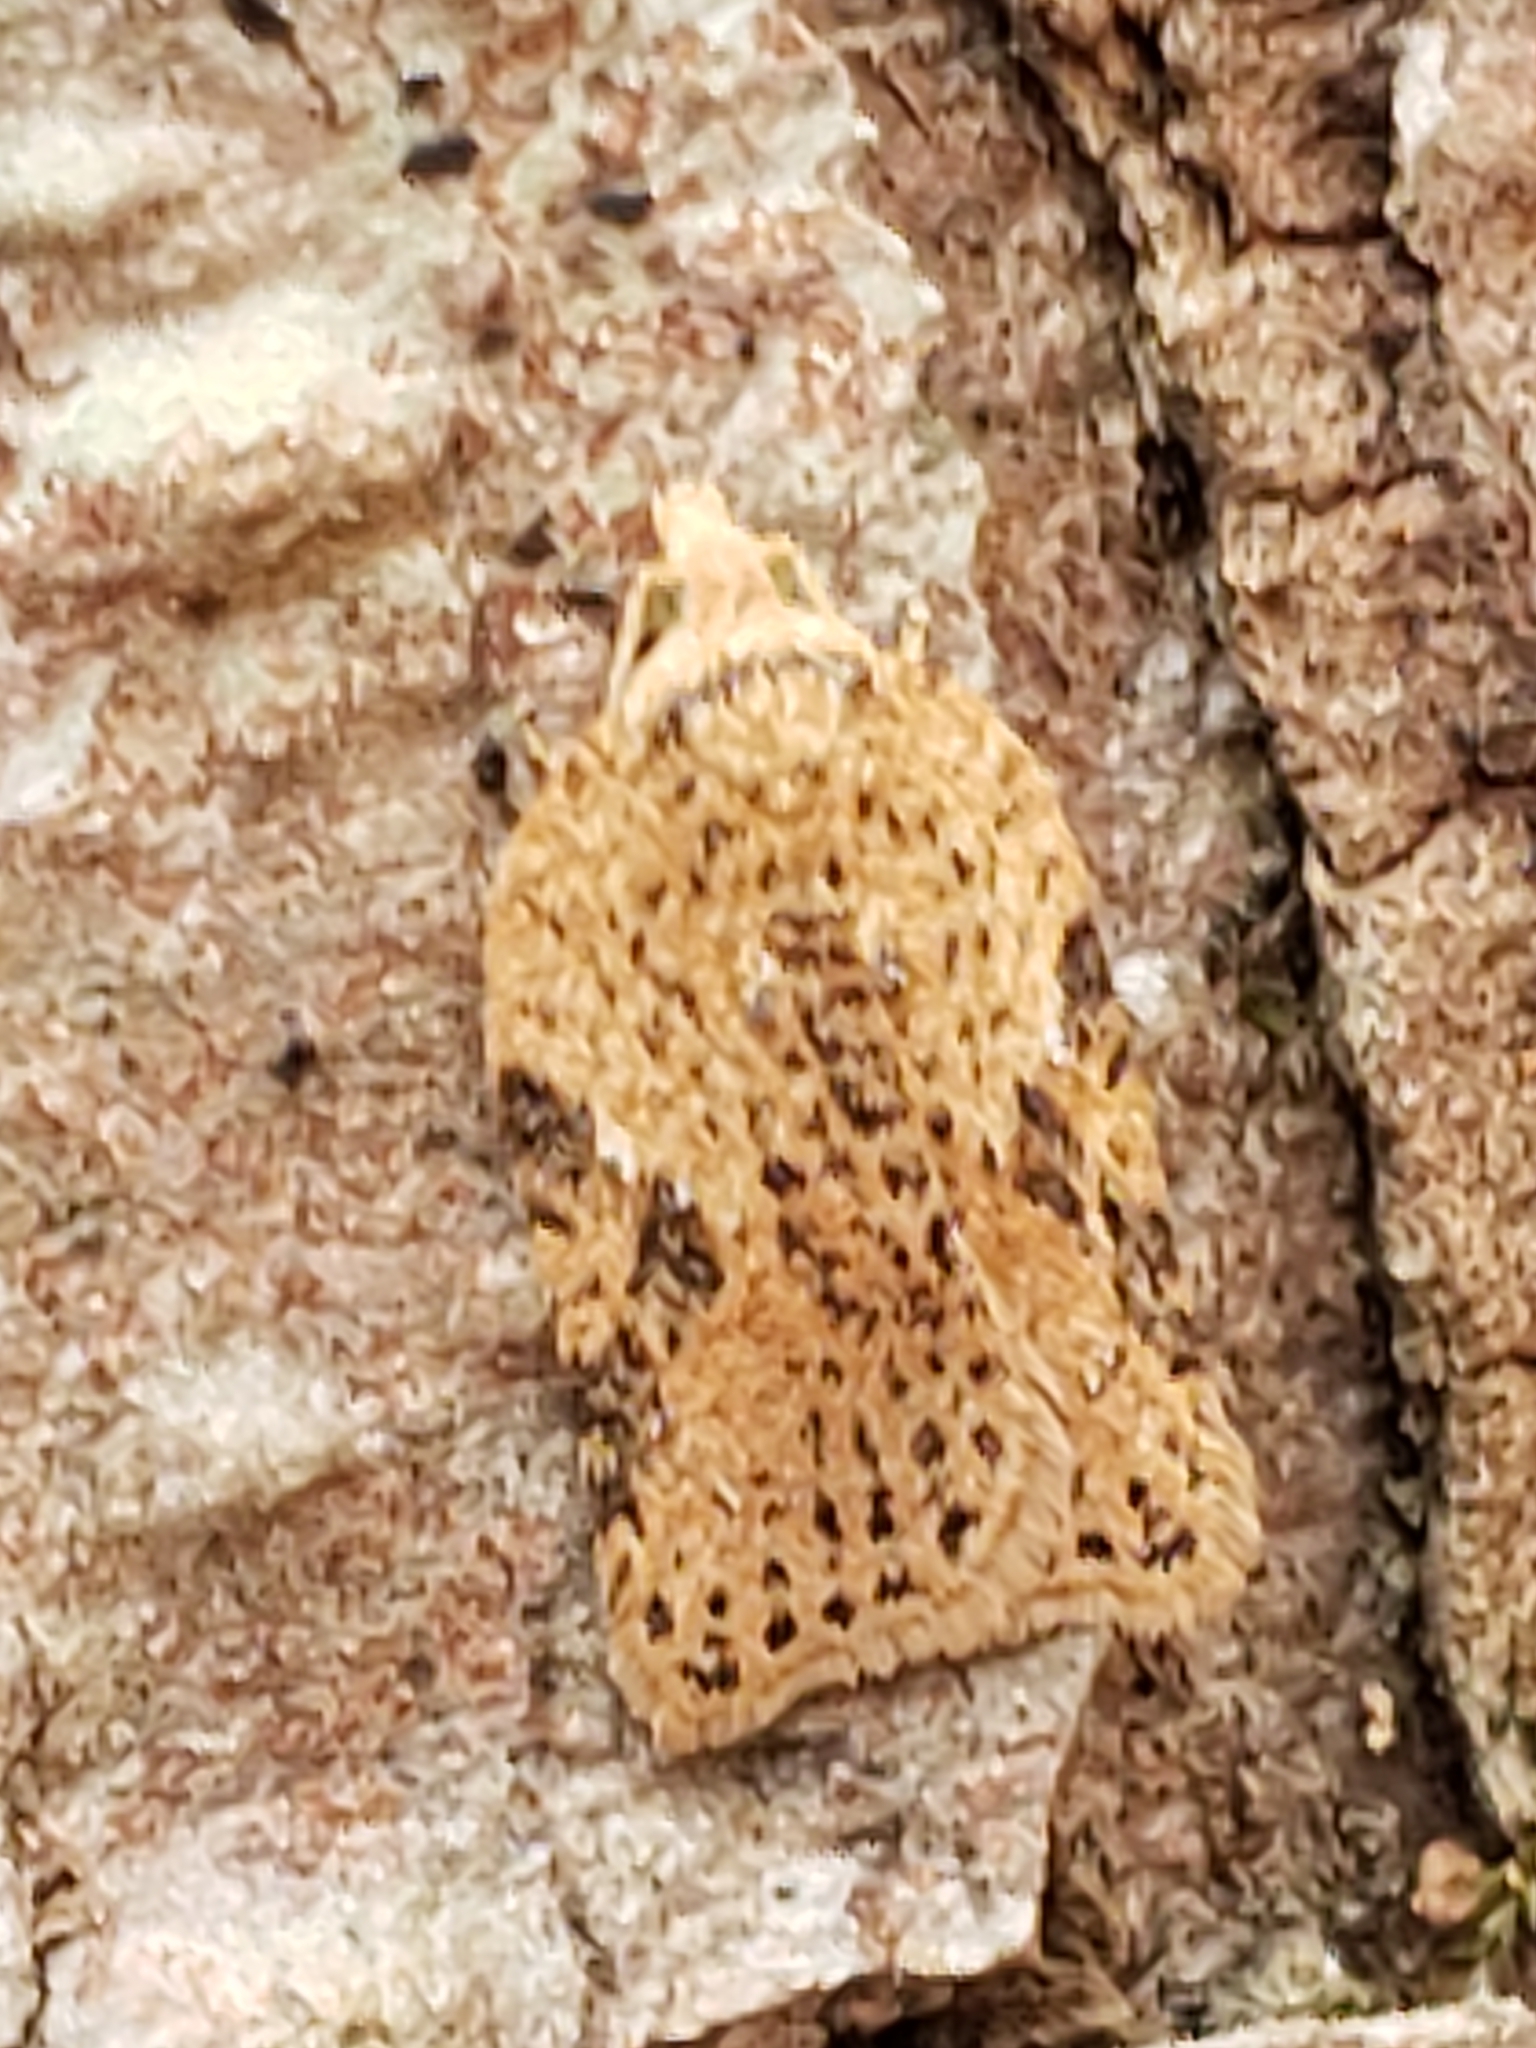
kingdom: Animalia
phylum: Arthropoda
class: Insecta
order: Lepidoptera
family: Tortricidae
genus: Acleris
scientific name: Acleris negundana
